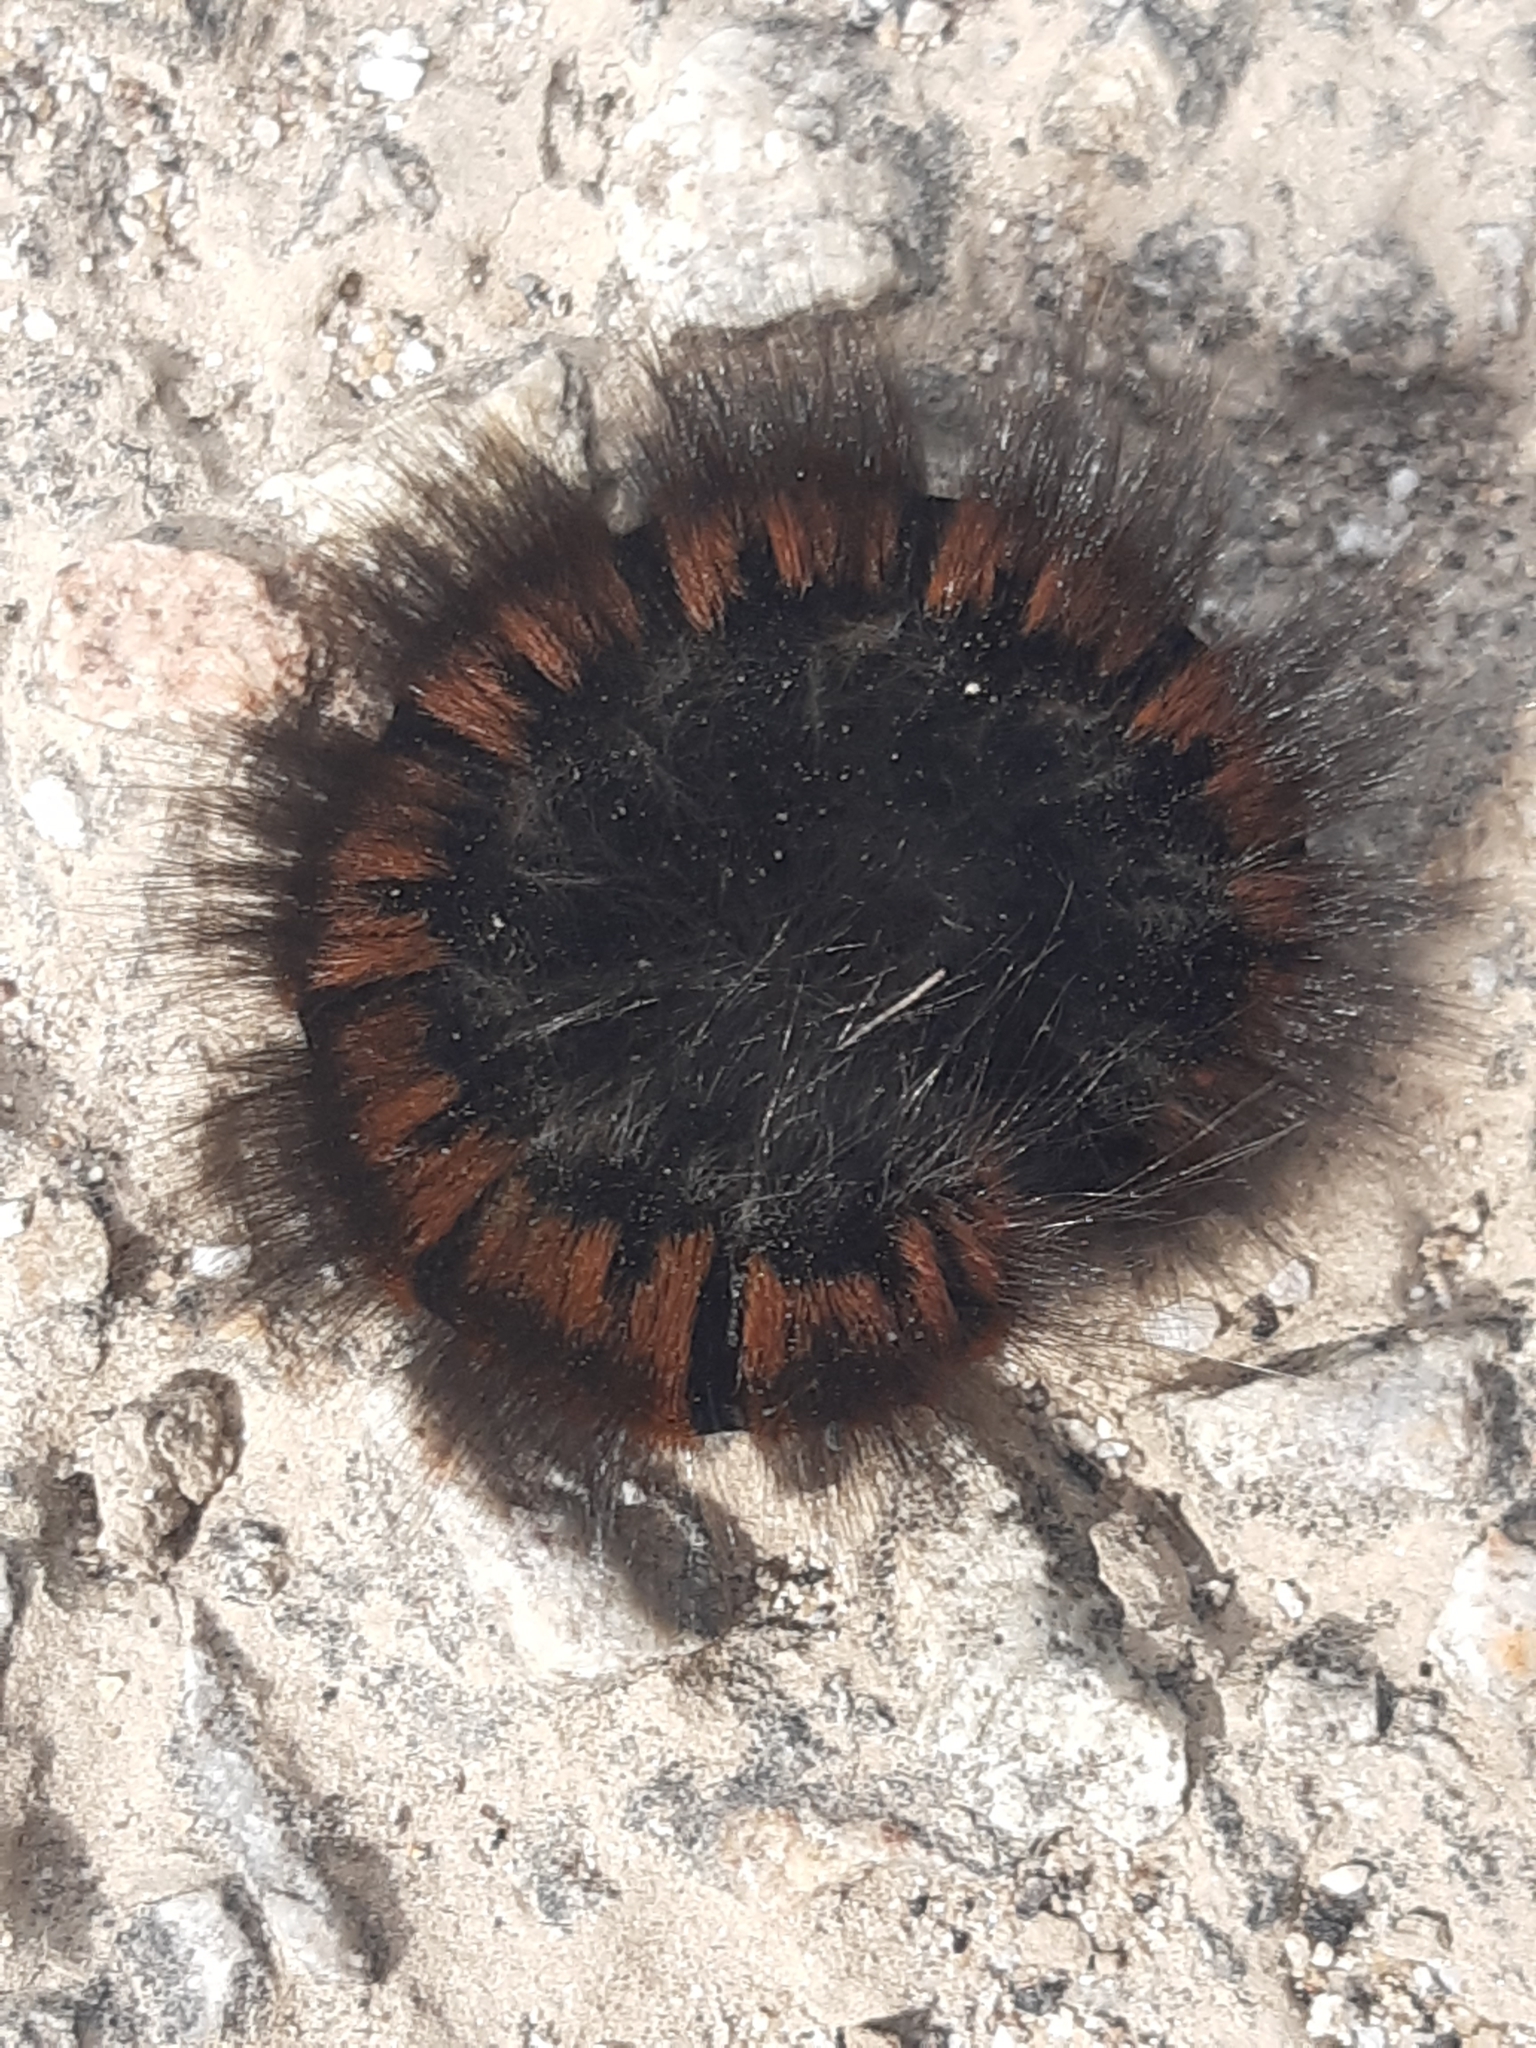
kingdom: Animalia
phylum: Arthropoda
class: Insecta
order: Lepidoptera
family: Lasiocampidae
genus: Macrothylacia
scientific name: Macrothylacia rubi
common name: Fox moth
